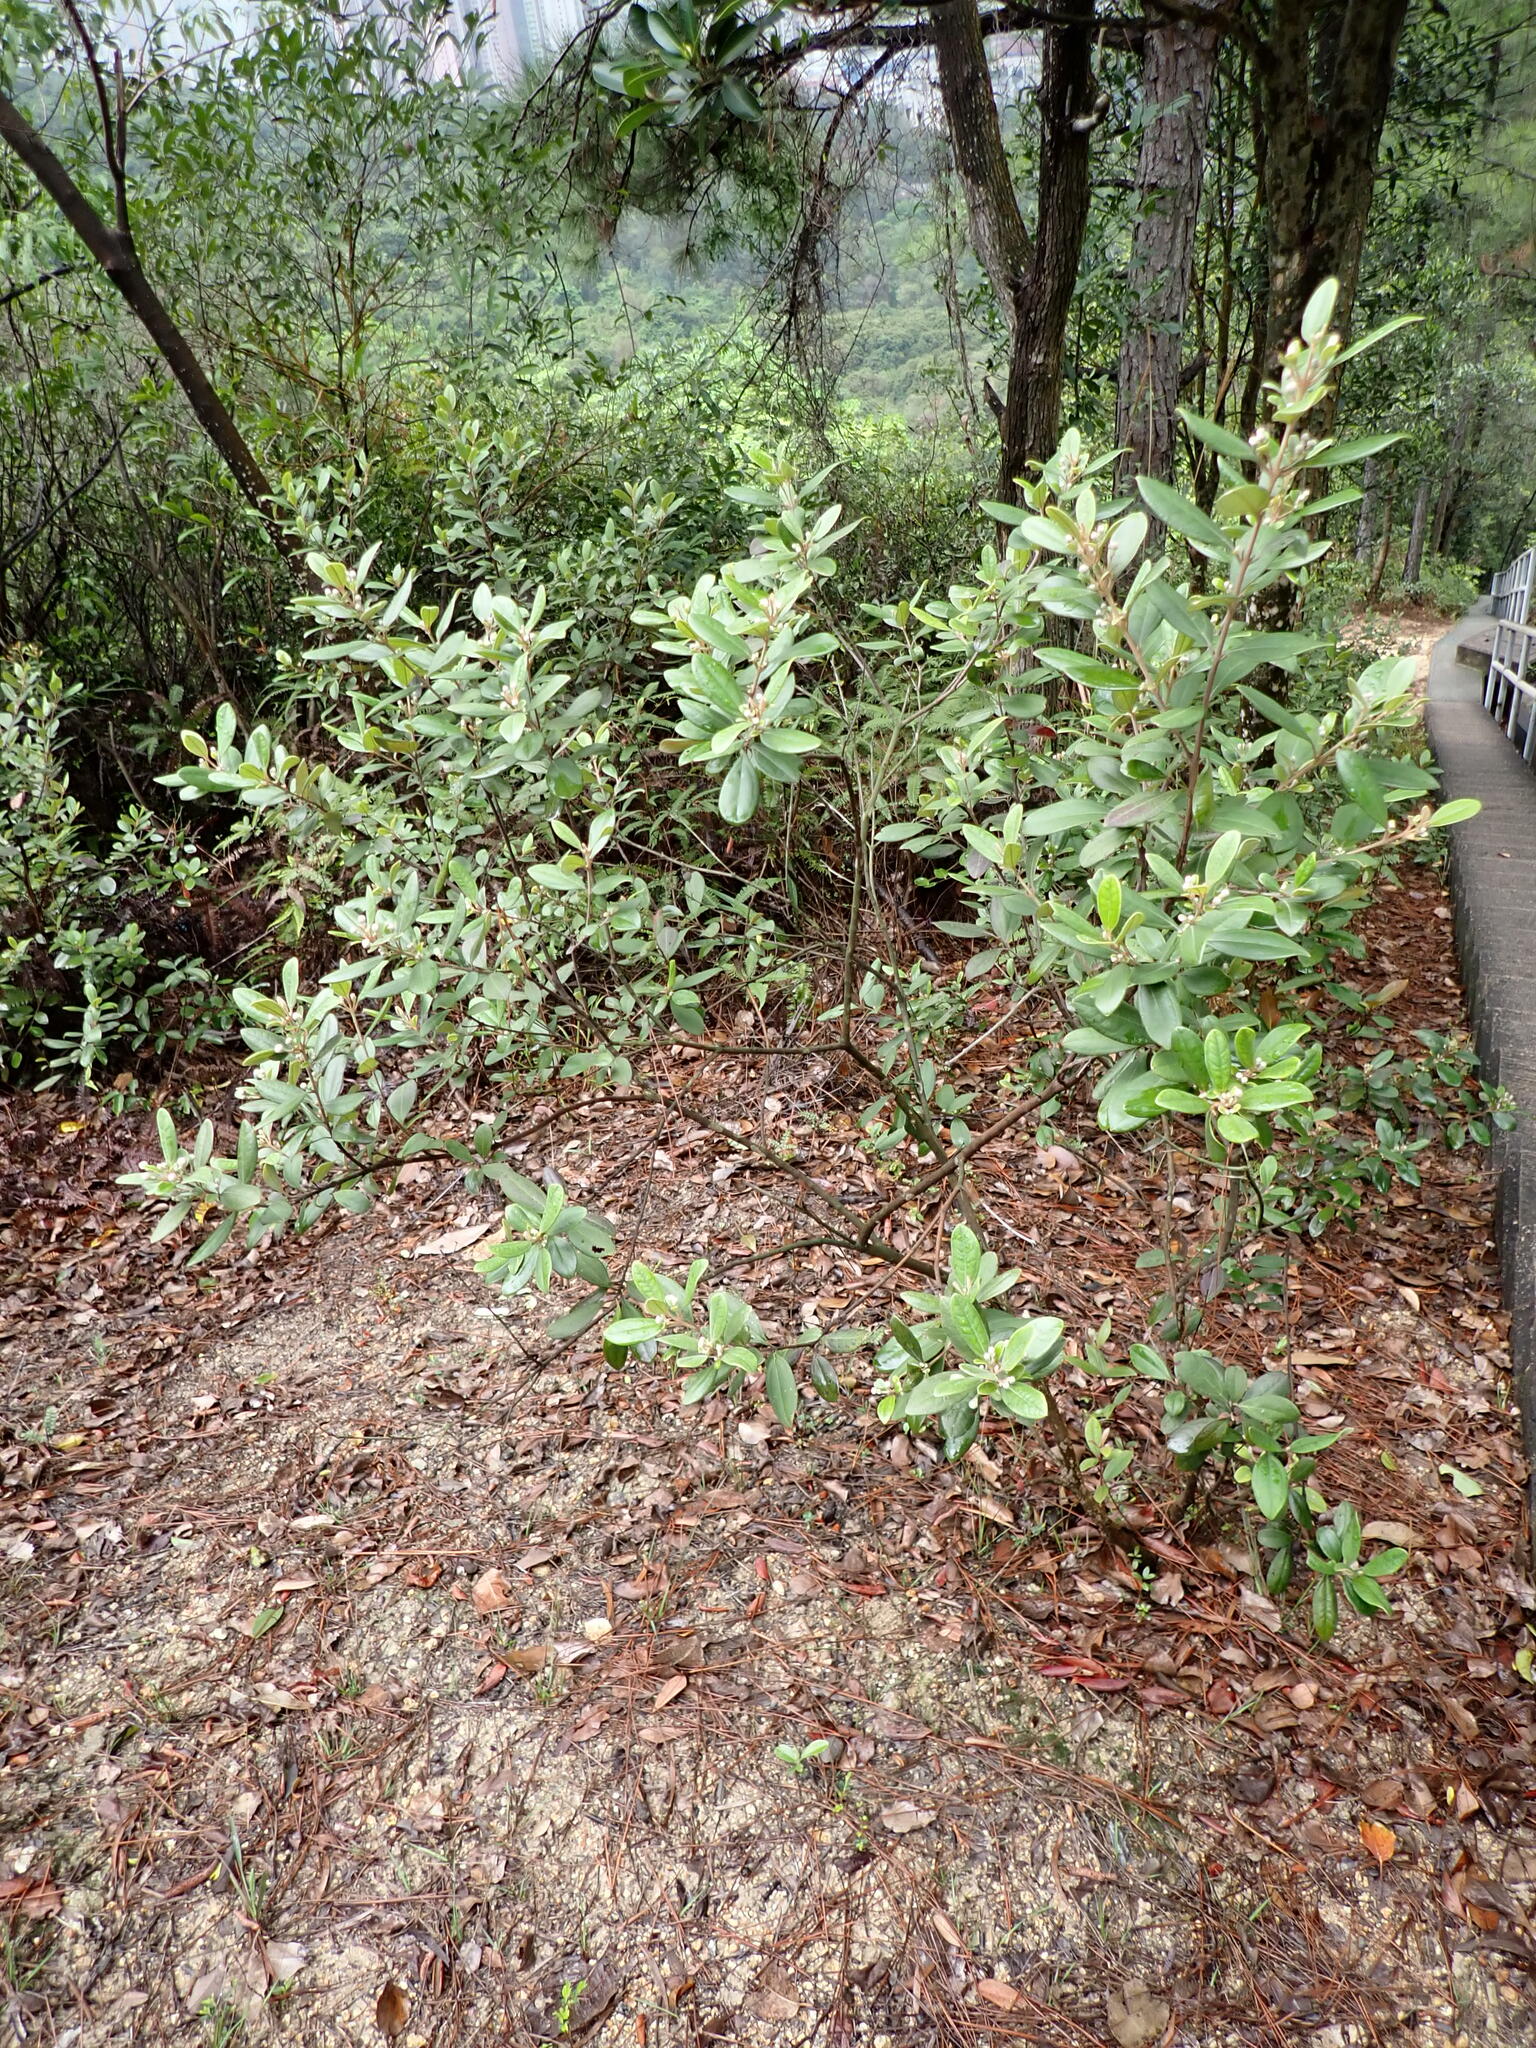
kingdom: Plantae
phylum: Tracheophyta
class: Magnoliopsida
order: Myrtales
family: Myrtaceae
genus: Rhodomyrtus
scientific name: Rhodomyrtus tomentosa
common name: Rose myrtle
